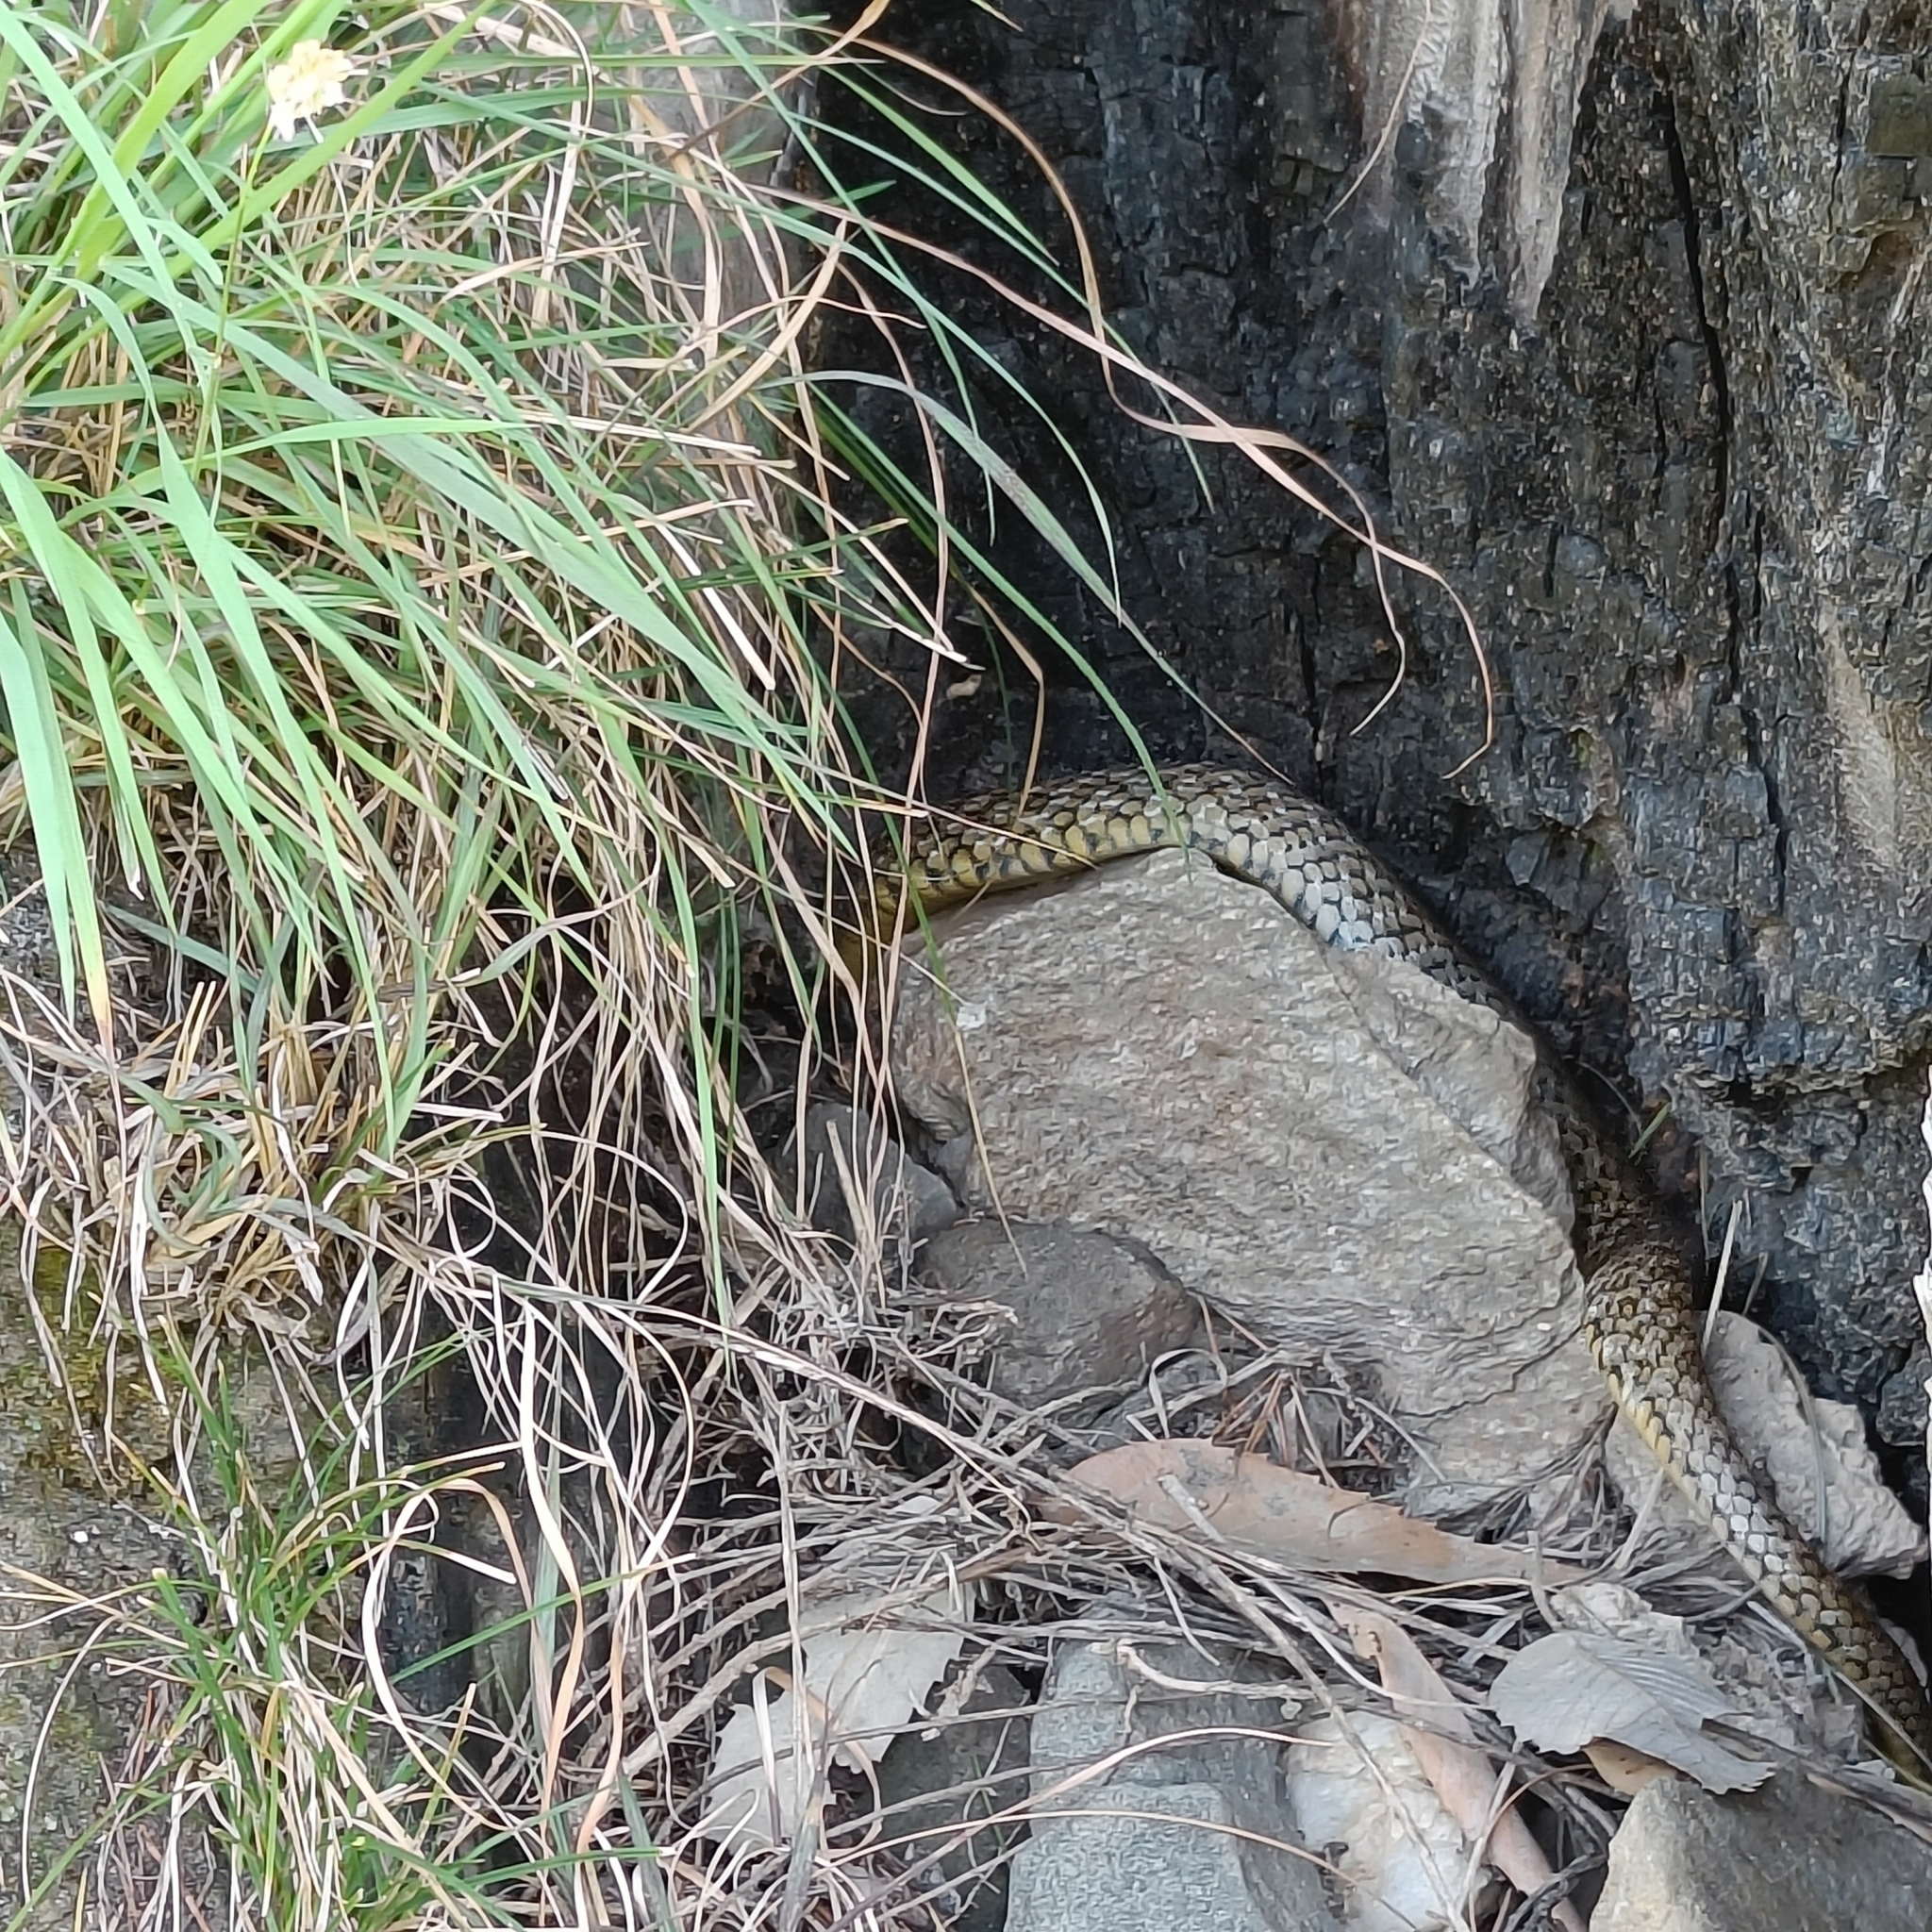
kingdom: Animalia
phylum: Chordata
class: Squamata
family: Colubridae
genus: Elaphe
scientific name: Elaphe hodgsoni
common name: English common name not available
